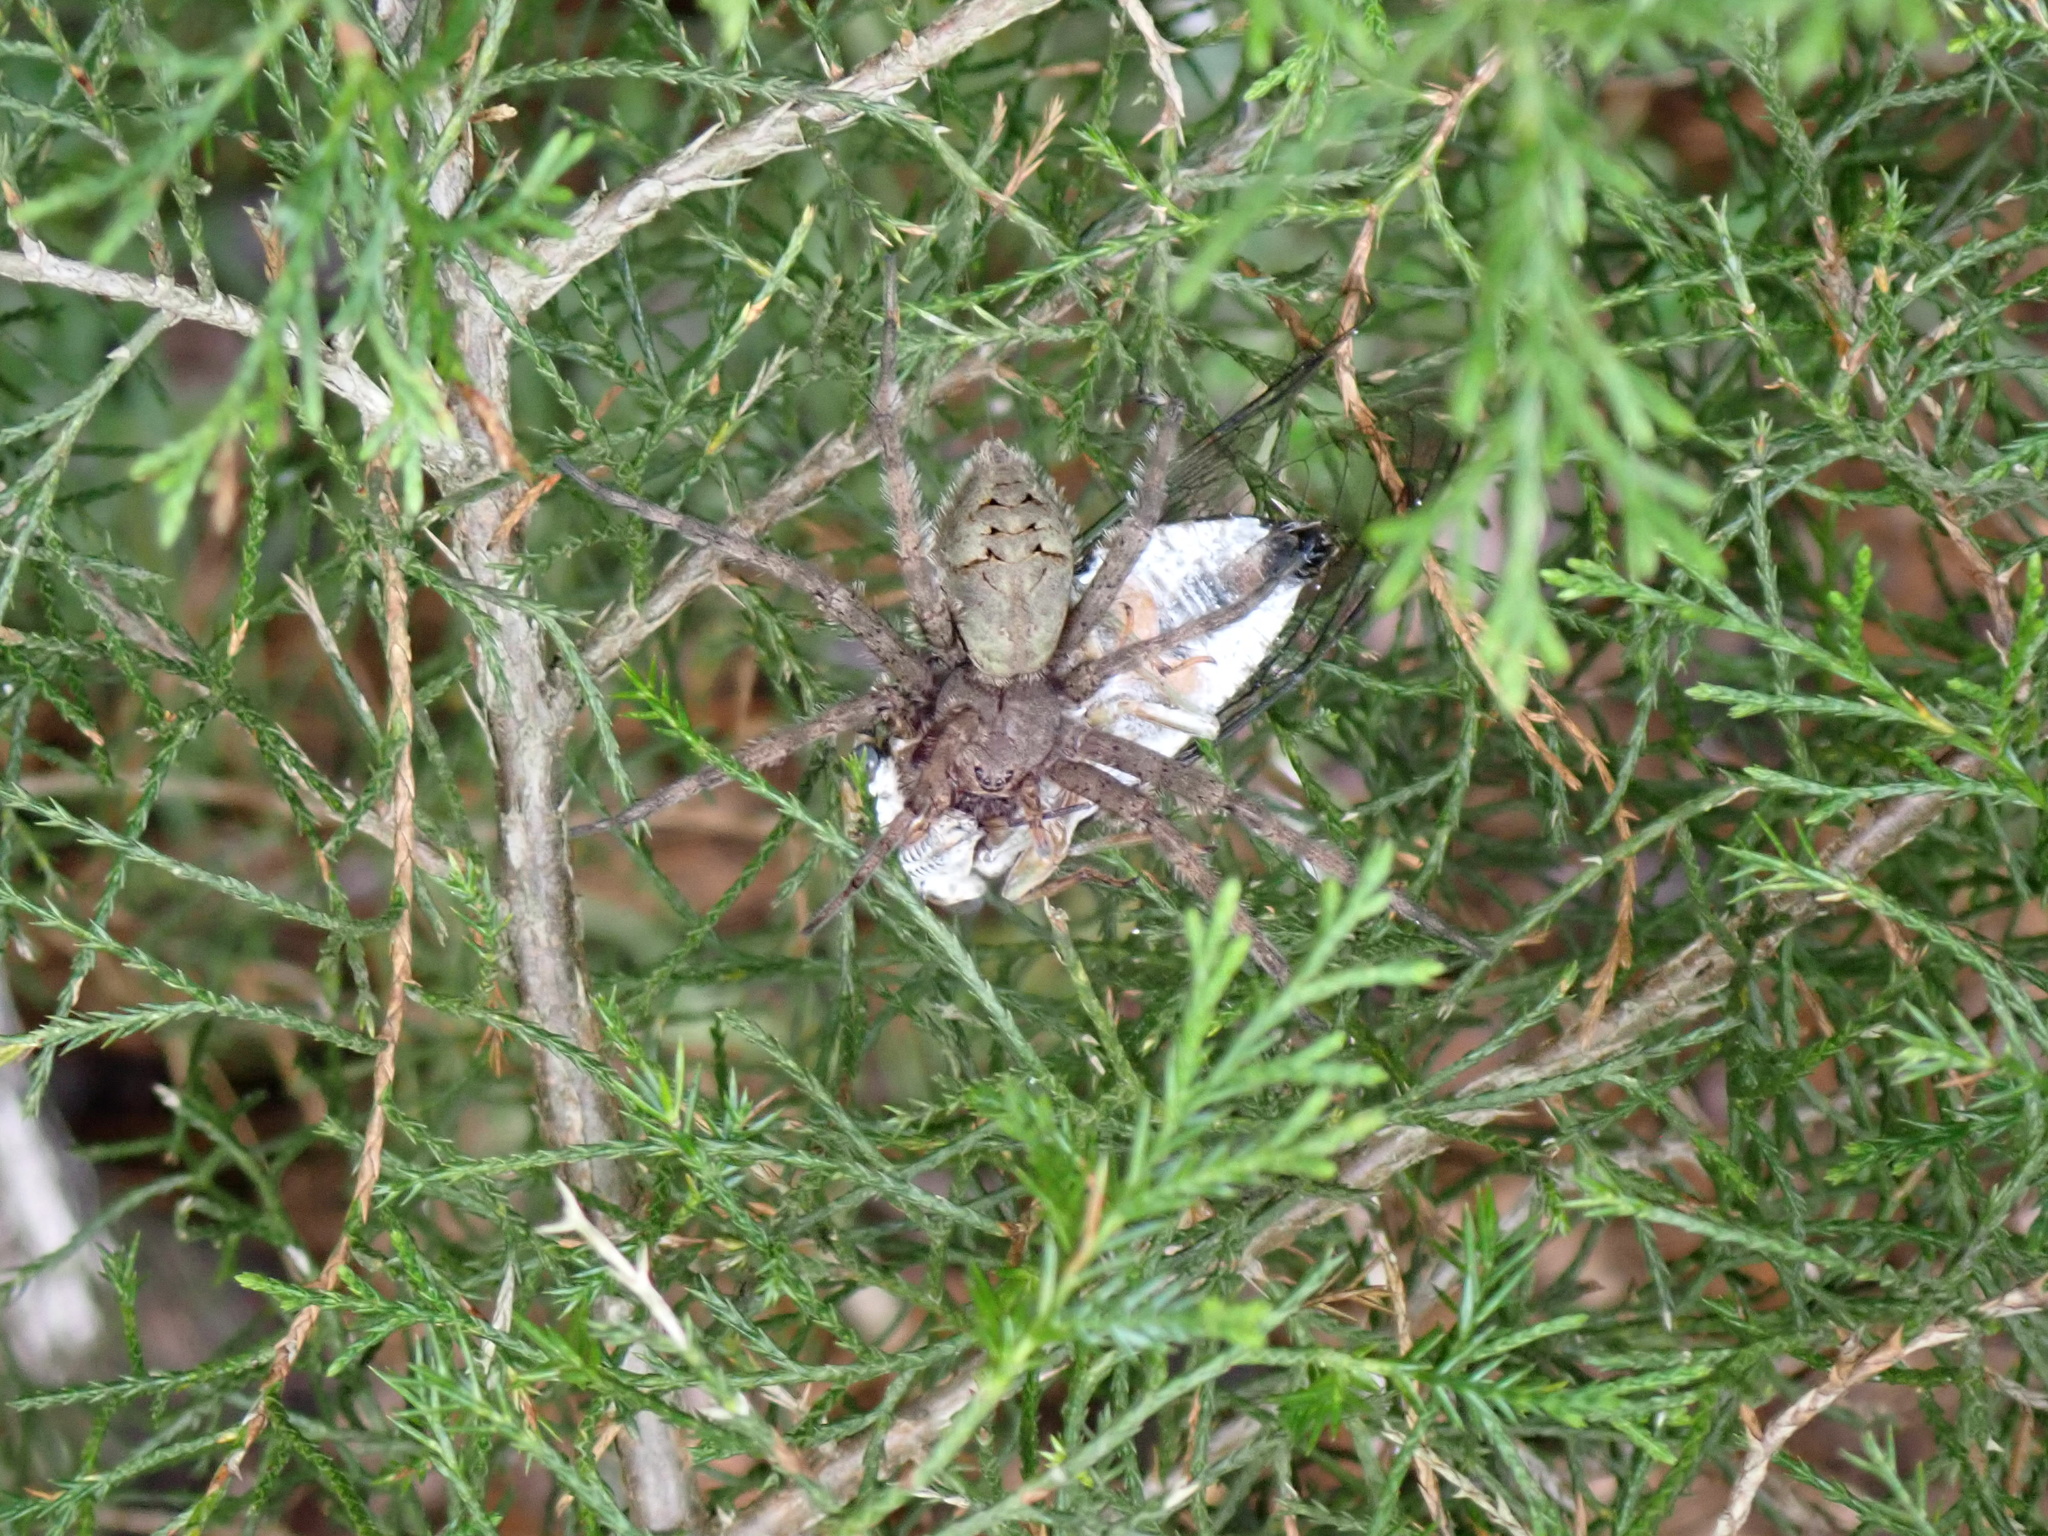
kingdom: Animalia
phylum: Arthropoda
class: Arachnida
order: Araneae
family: Pisauridae
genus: Dolomedes
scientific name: Dolomedes albineus
